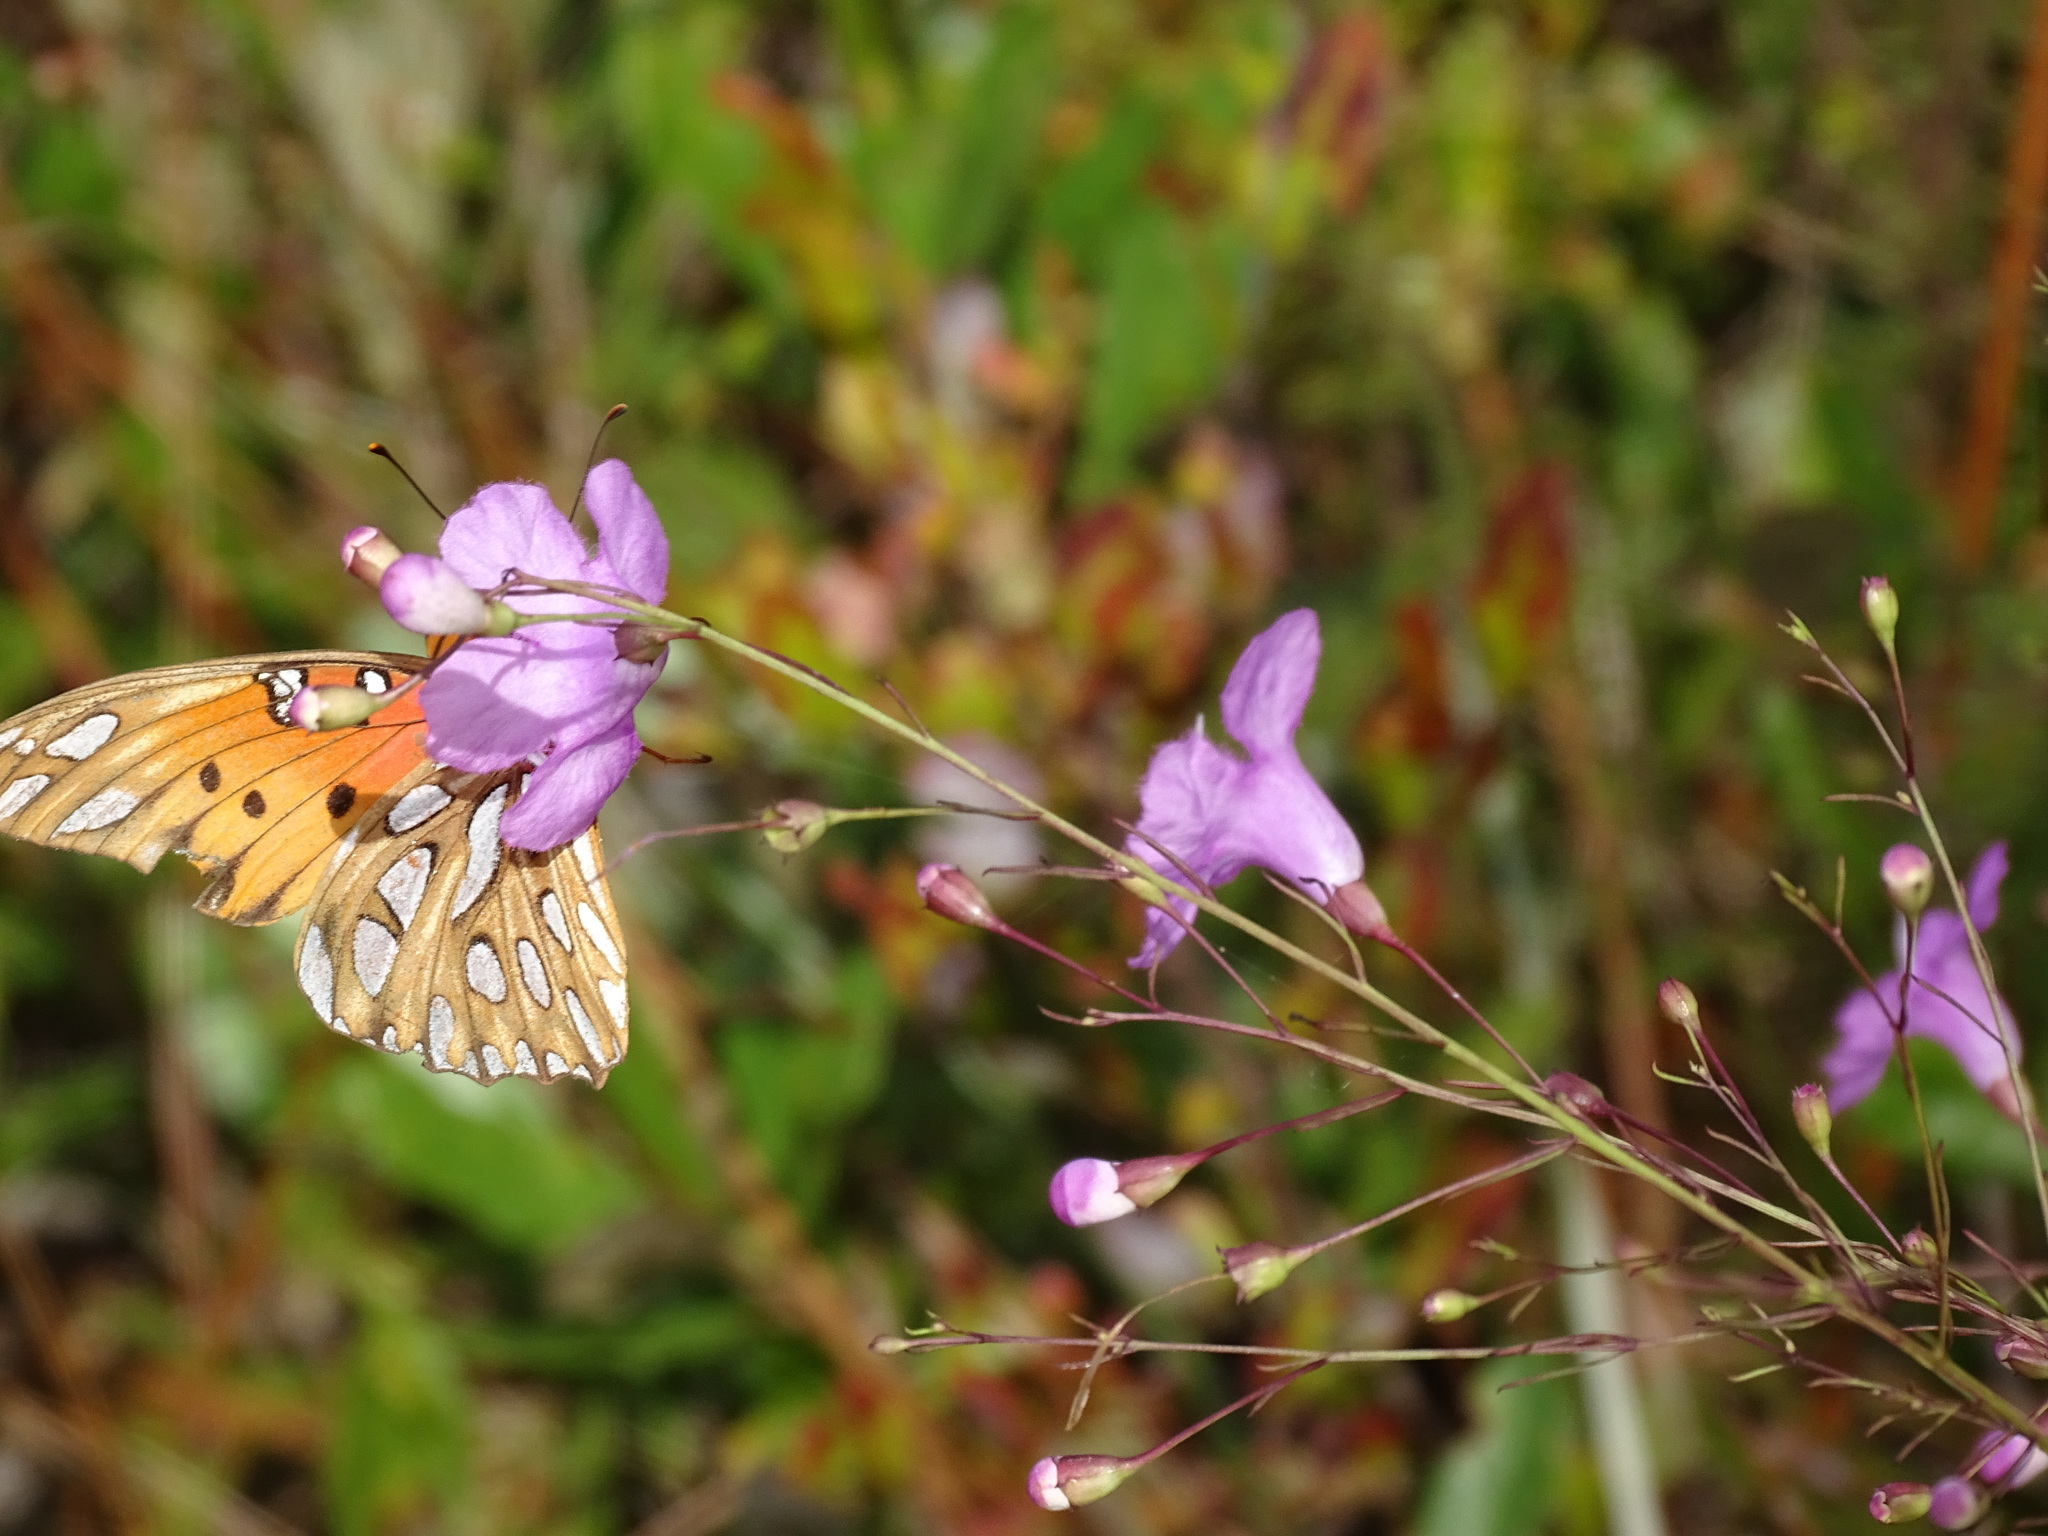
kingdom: Animalia
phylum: Arthropoda
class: Insecta
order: Lepidoptera
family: Nymphalidae
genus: Dione
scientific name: Dione vanillae
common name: Gulf fritillary
